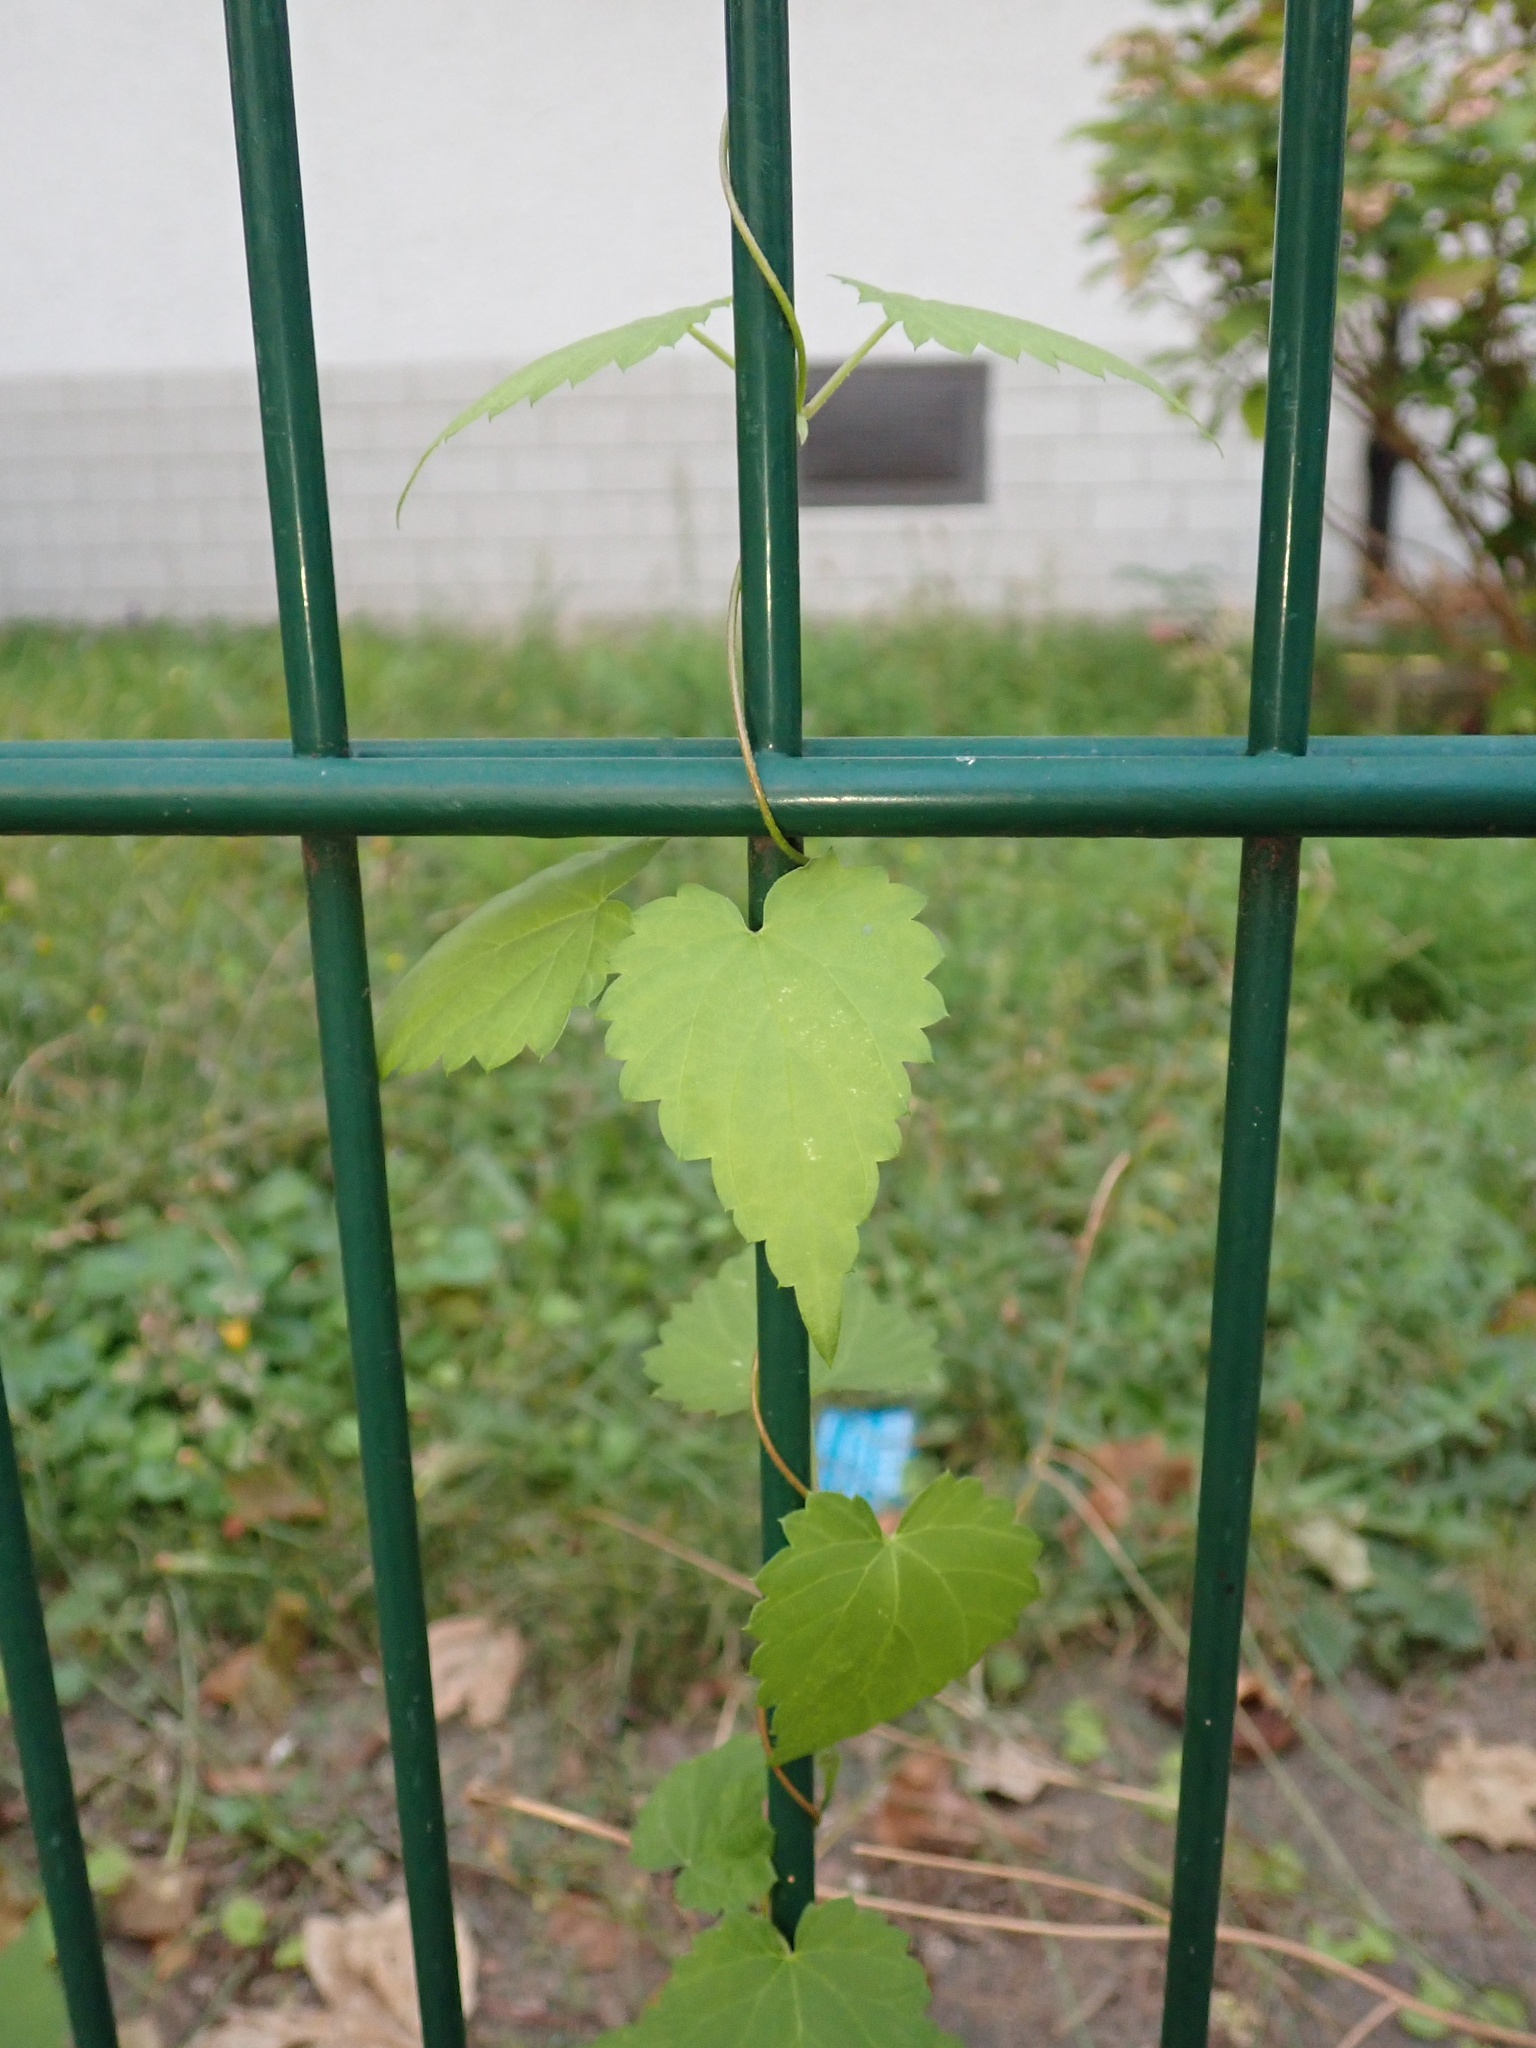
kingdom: Plantae
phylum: Tracheophyta
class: Magnoliopsida
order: Rosales
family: Cannabaceae
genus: Humulus
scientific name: Humulus lupulus
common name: Hop
